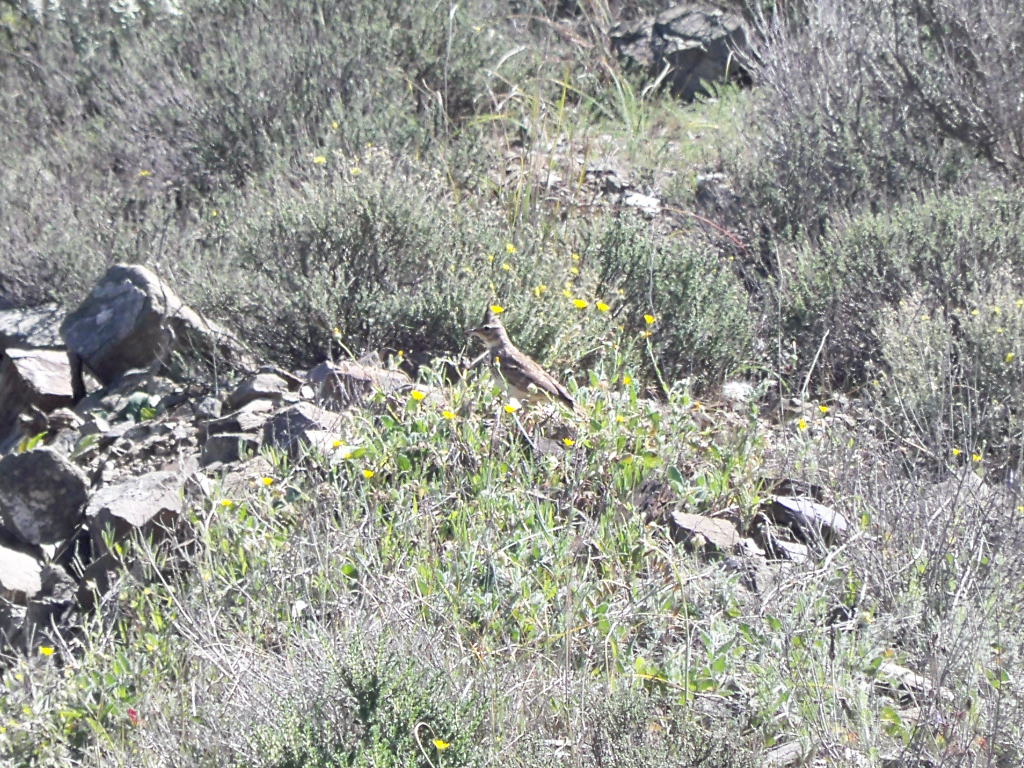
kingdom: Animalia
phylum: Chordata
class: Aves
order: Passeriformes
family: Alaudidae
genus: Galerida
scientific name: Galerida cristata
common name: Crested lark
